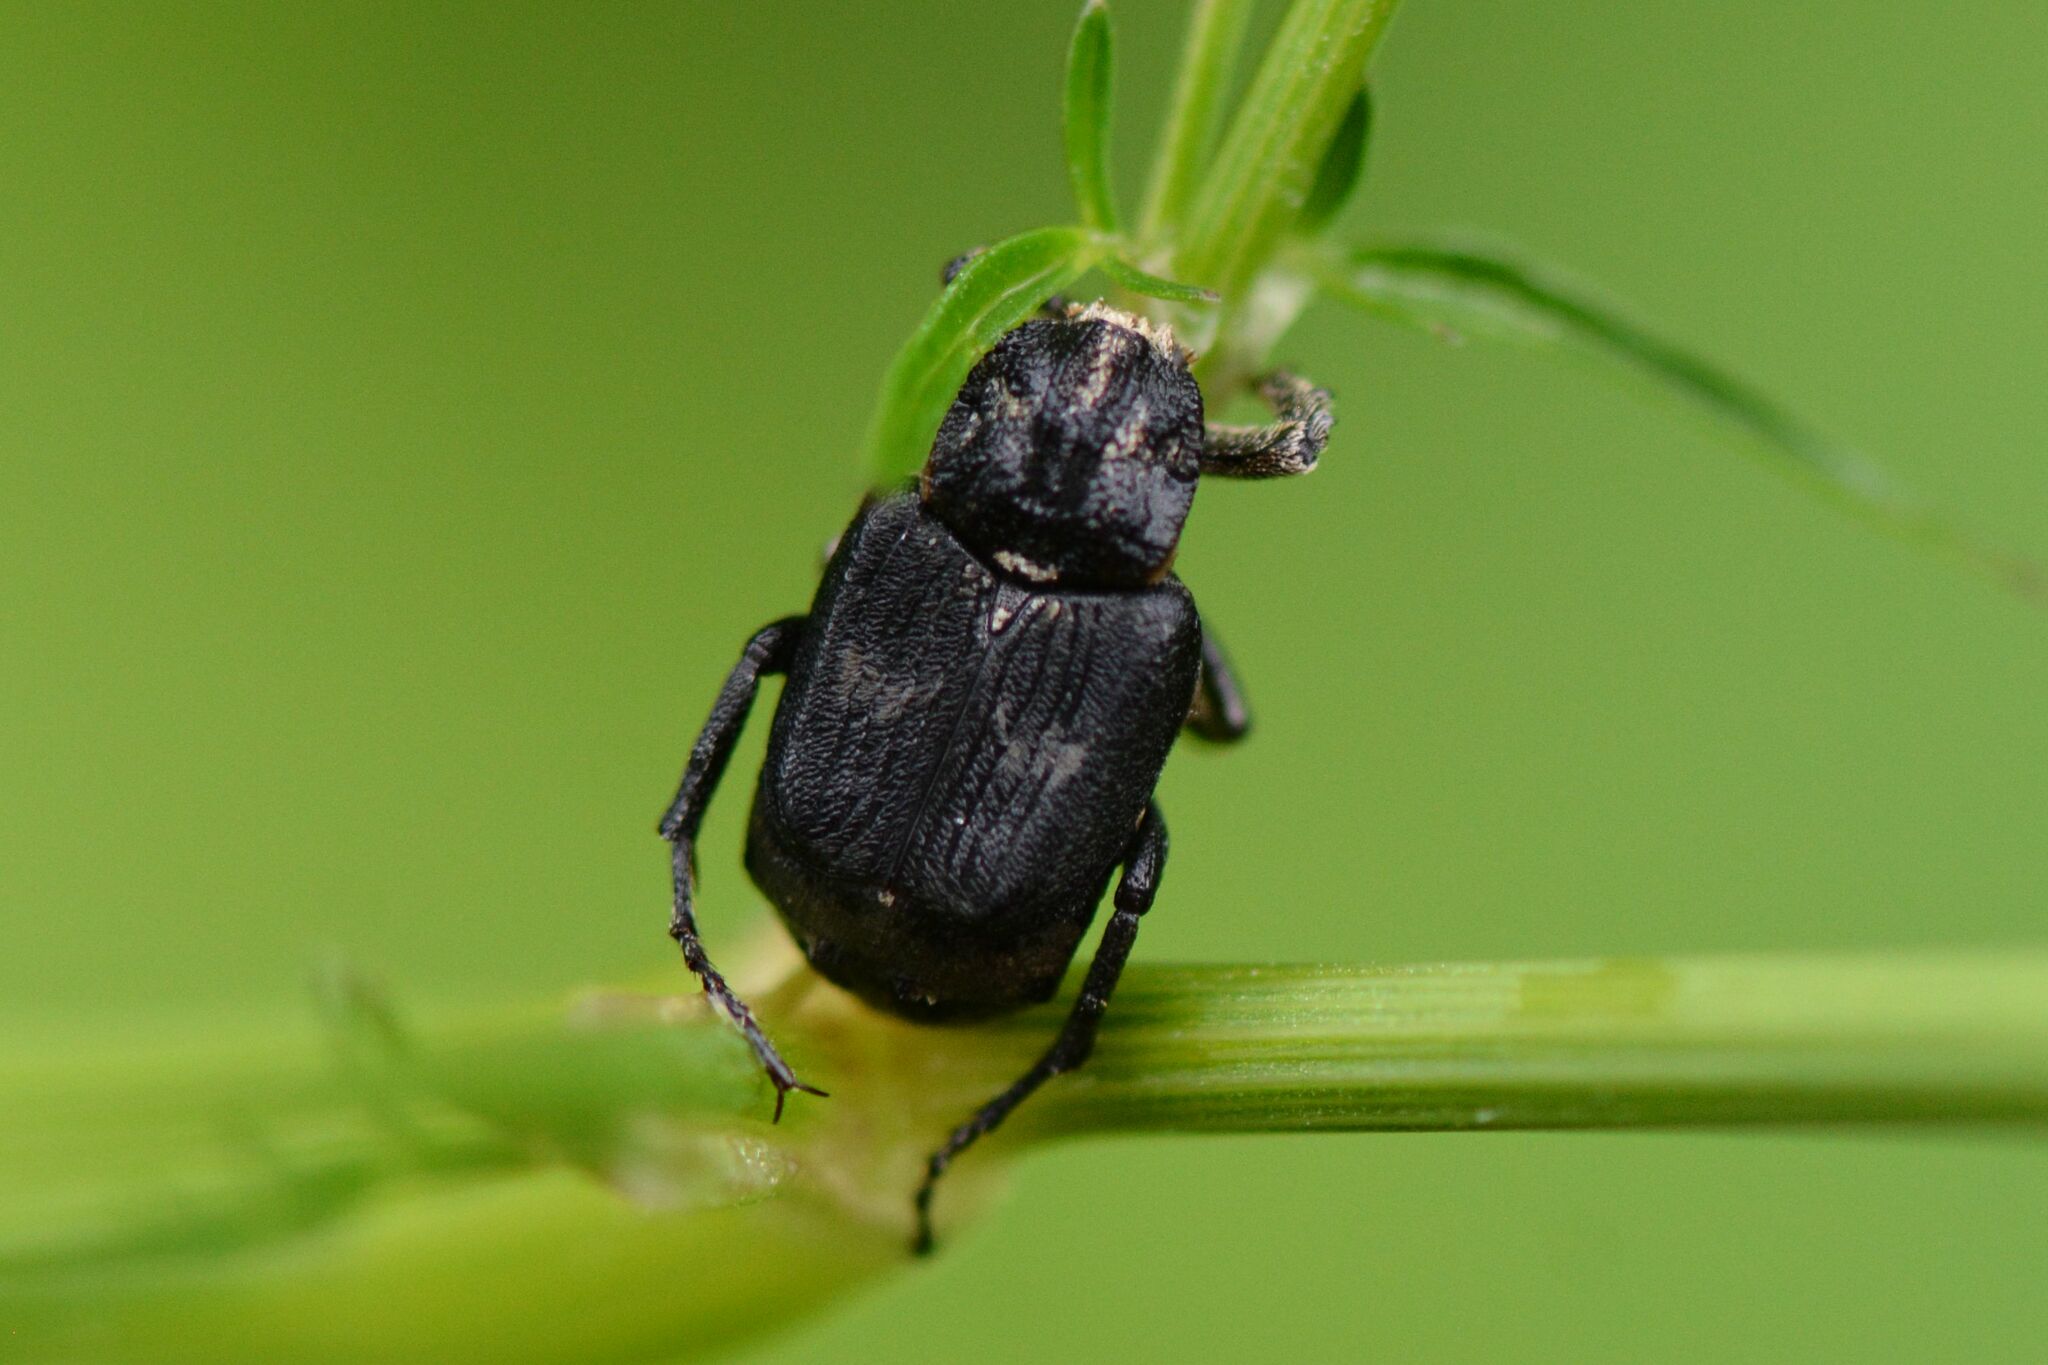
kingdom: Animalia
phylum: Arthropoda
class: Insecta
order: Coleoptera
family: Scarabaeidae
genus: Valgus
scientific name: Valgus hemipterus
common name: Bug flower chafer
